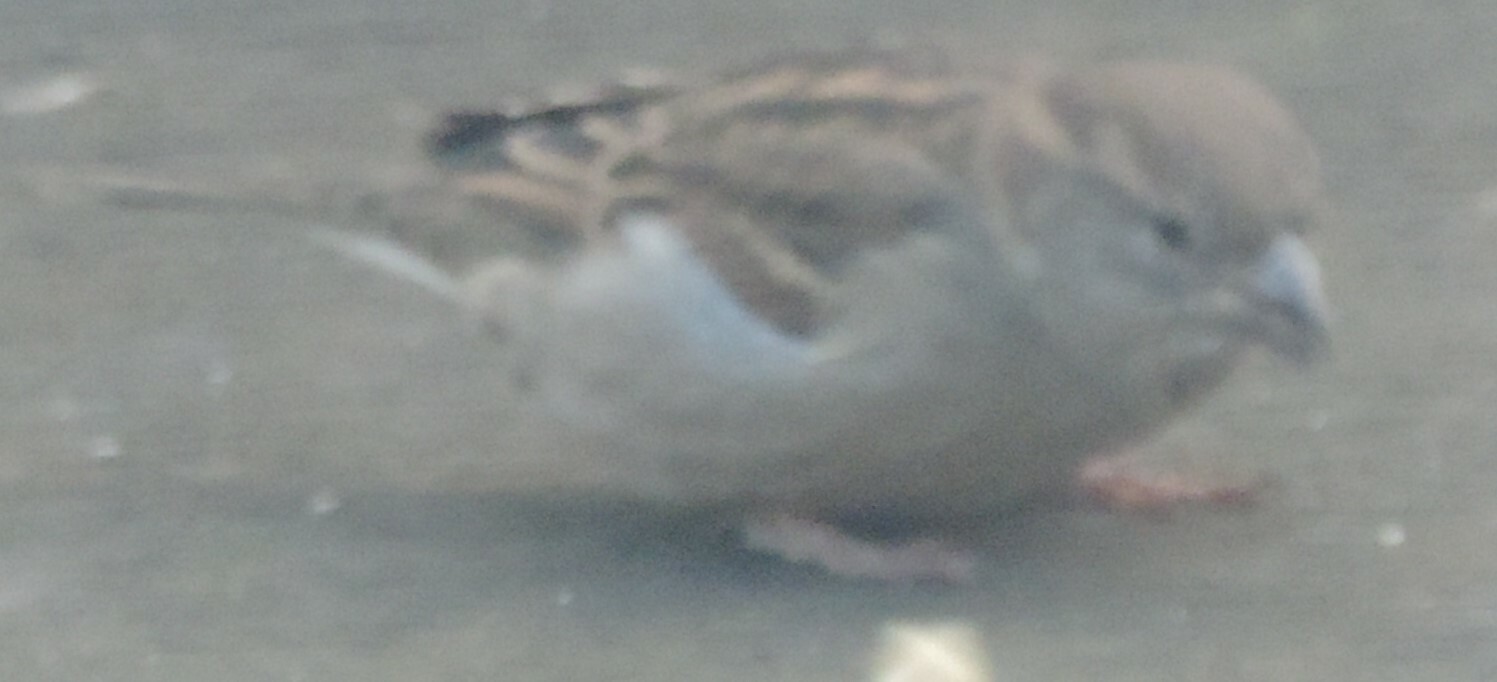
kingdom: Animalia
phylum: Chordata
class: Aves
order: Passeriformes
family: Passeridae
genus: Passer
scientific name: Passer domesticus
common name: House sparrow
